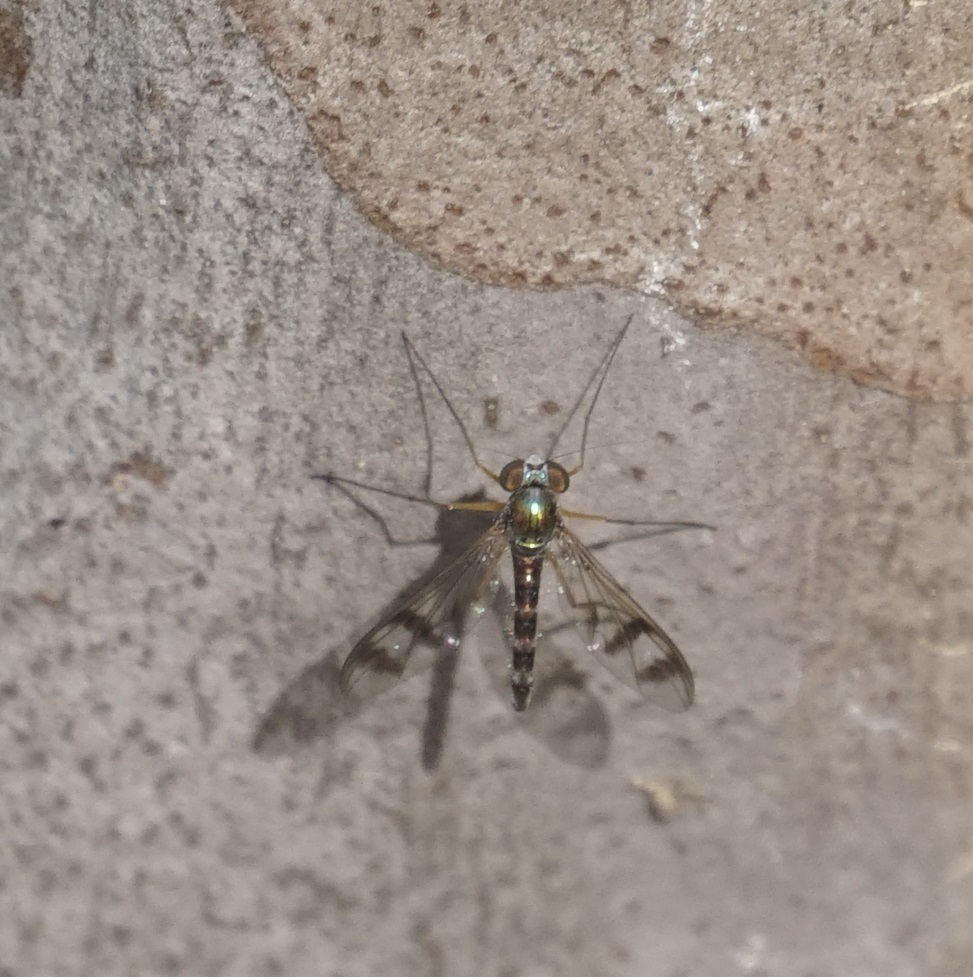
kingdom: Animalia
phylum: Arthropoda
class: Insecta
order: Diptera
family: Dolichopodidae
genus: Heteropsilopus
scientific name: Heteropsilopus squamifer
